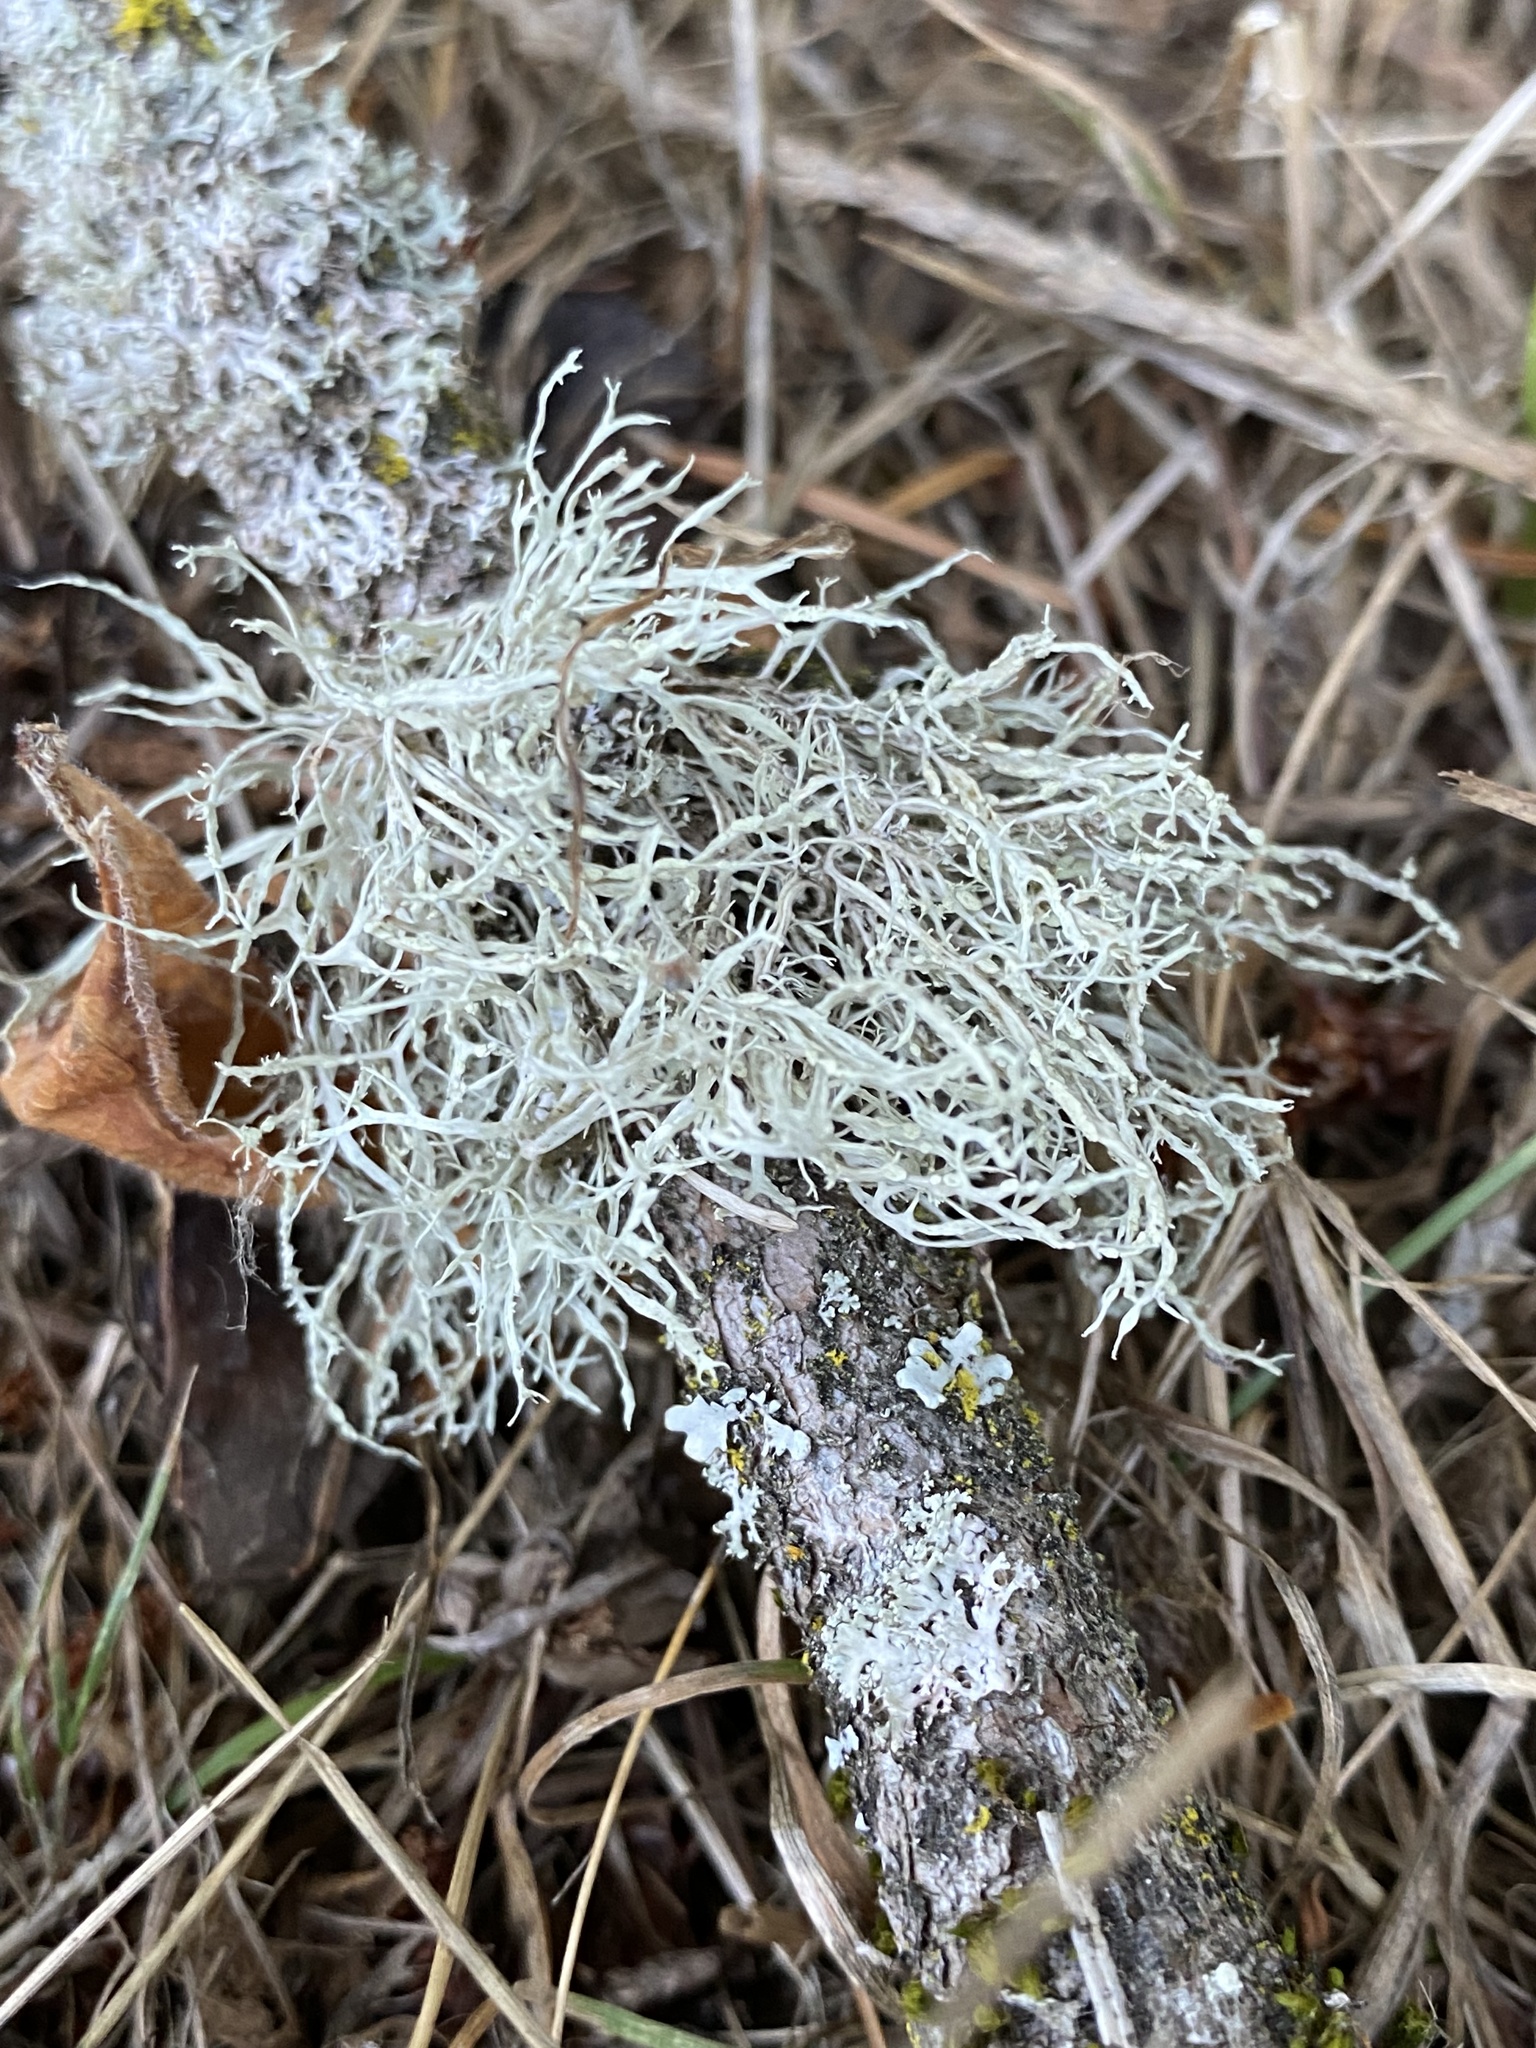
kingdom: Fungi
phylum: Ascomycota
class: Lecanoromycetes
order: Lecanorales
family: Ramalinaceae
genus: Ramalina
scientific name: Ramalina farinacea
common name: Farinose cartilage lichen
